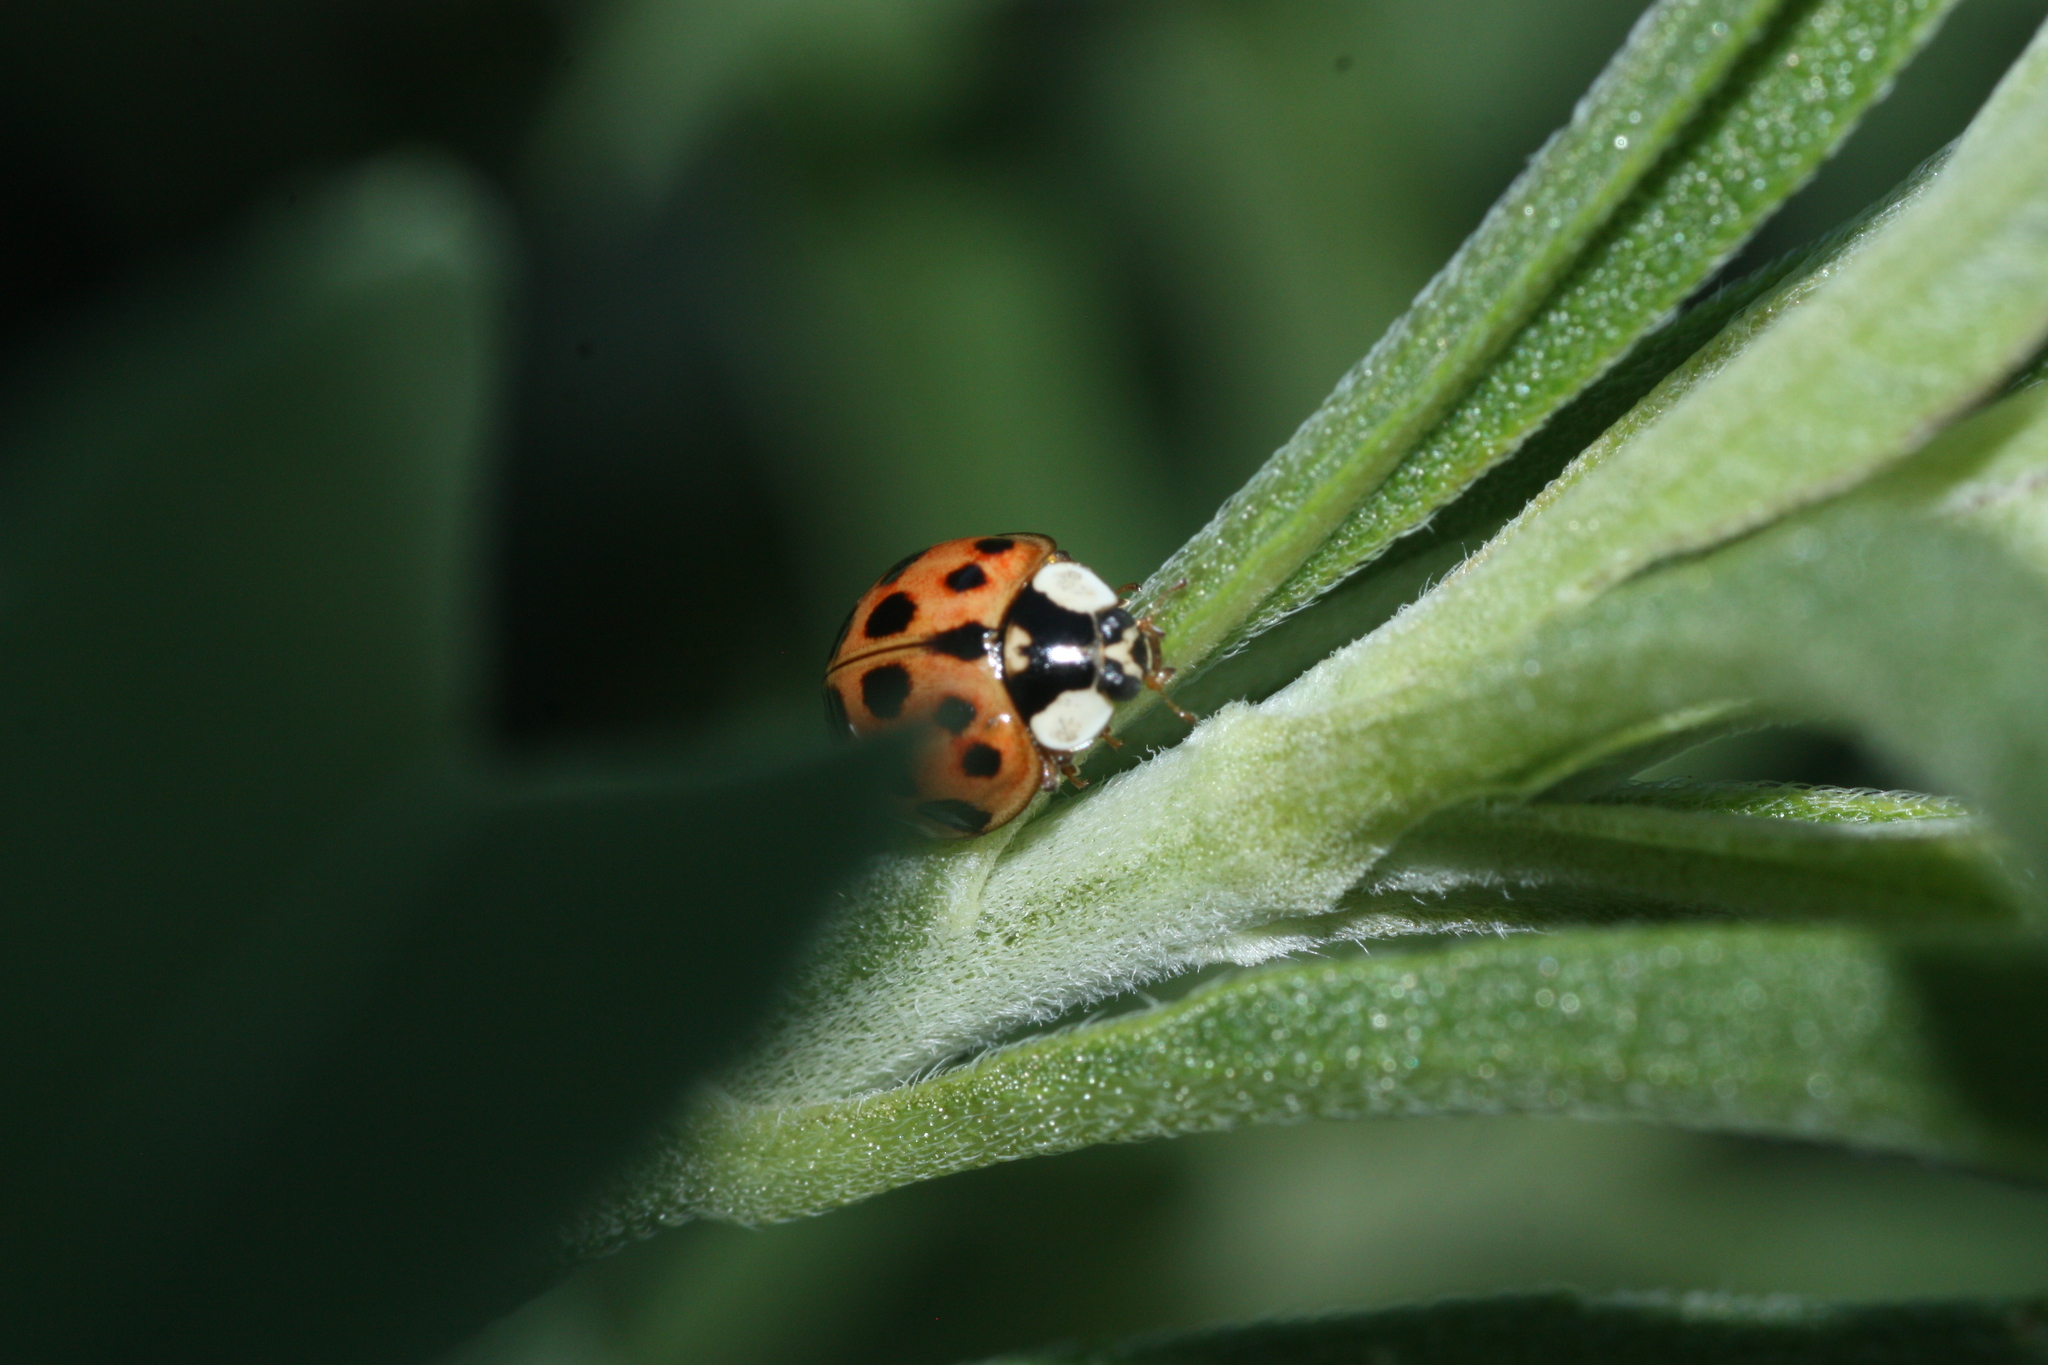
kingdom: Animalia
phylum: Arthropoda
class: Insecta
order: Coleoptera
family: Coccinellidae
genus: Harmonia
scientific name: Harmonia axyridis
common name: Harlequin ladybird
